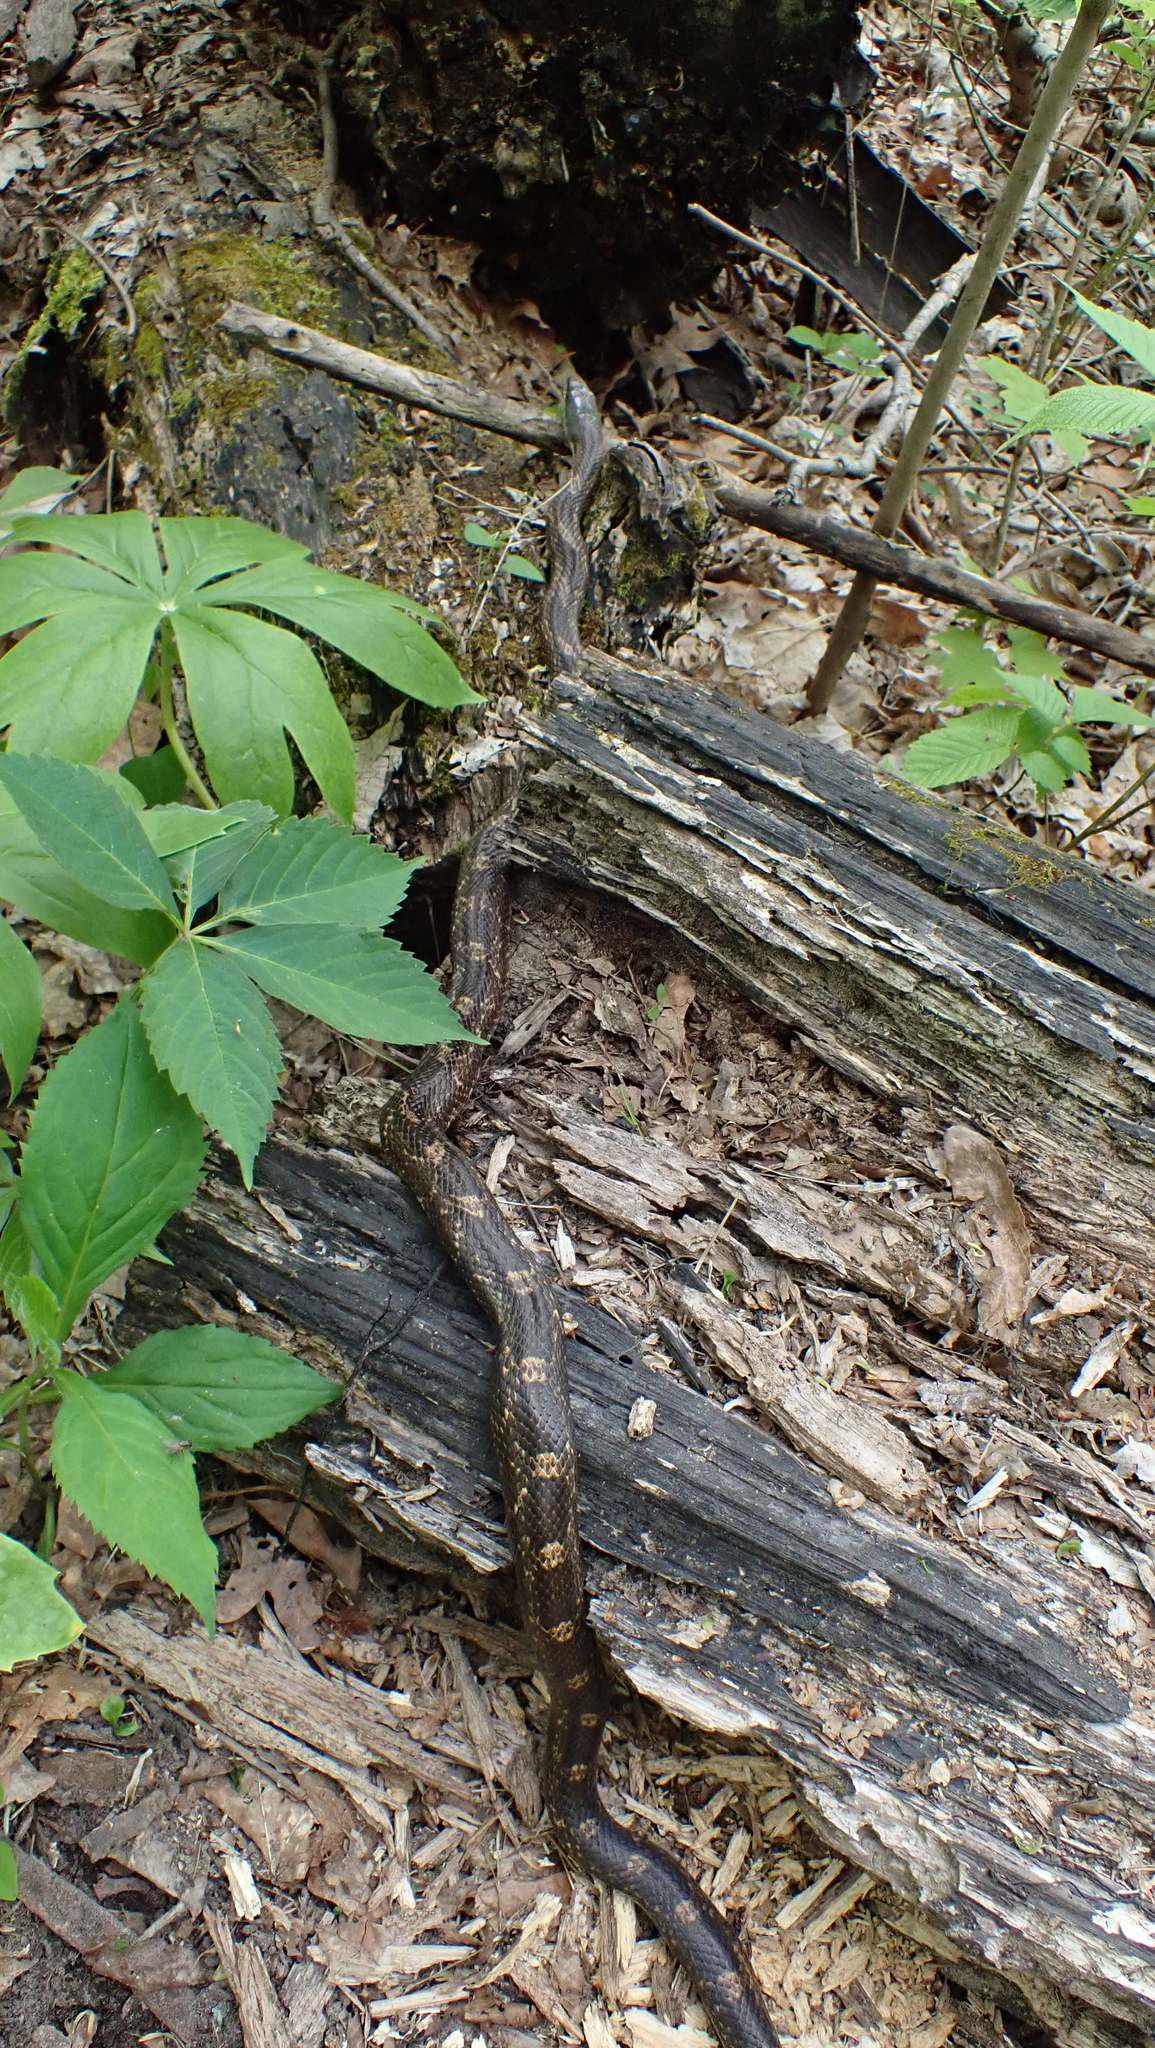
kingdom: Animalia
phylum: Chordata
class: Squamata
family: Colubridae
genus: Pantherophis
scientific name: Pantherophis spiloides
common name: Gray rat snake
